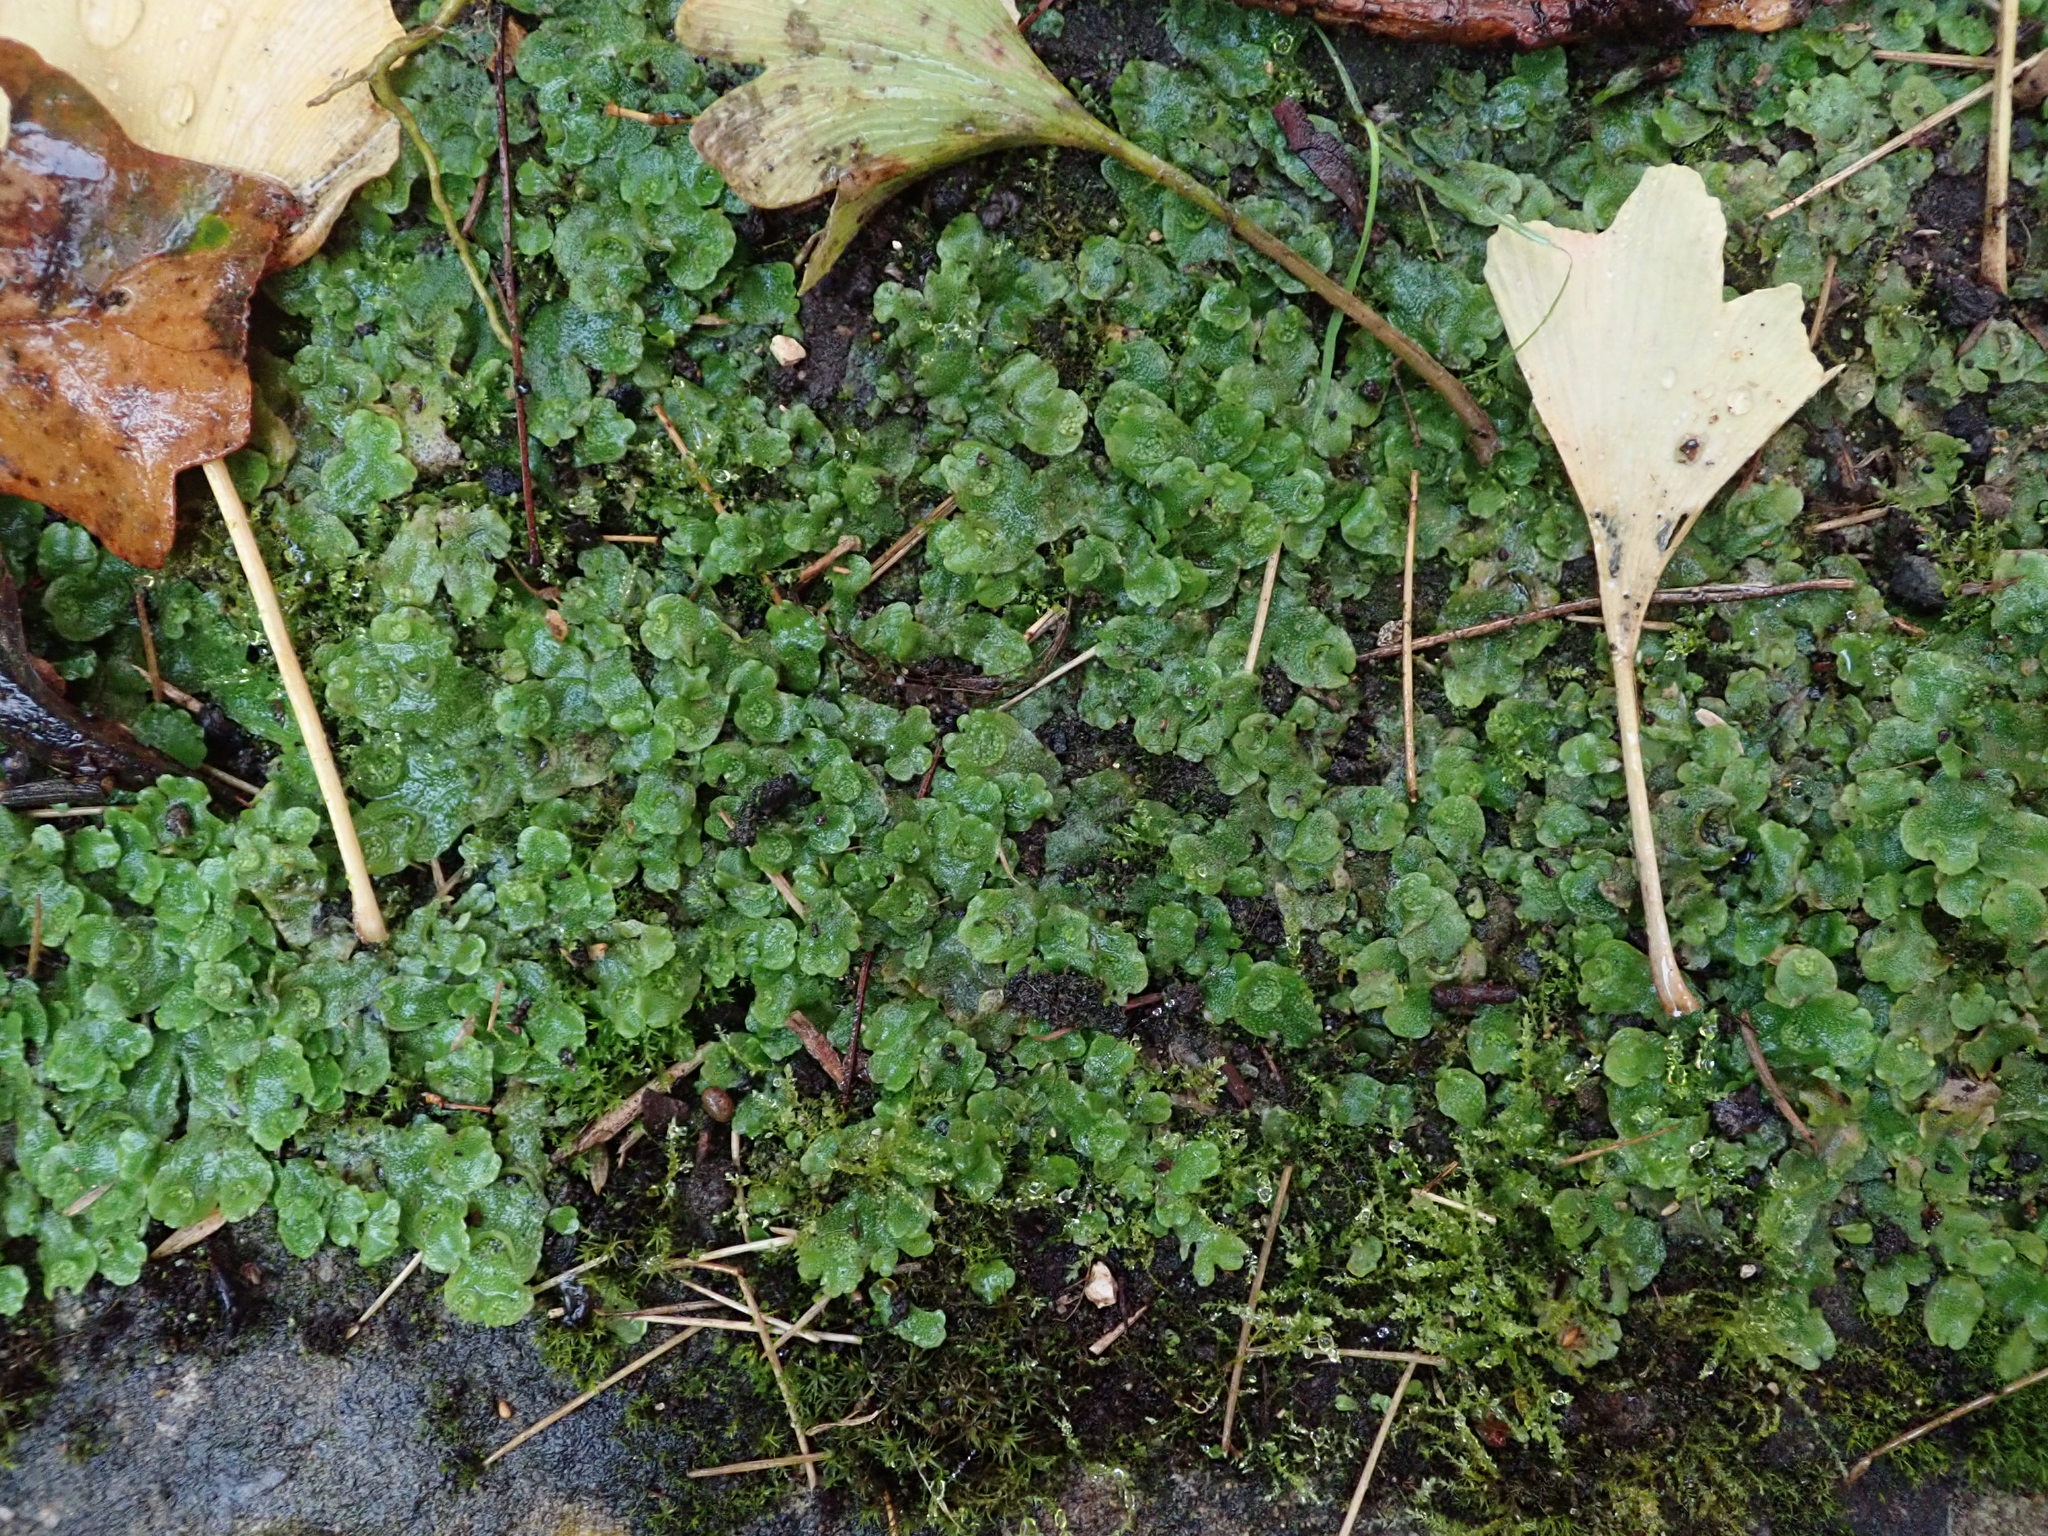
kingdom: Plantae
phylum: Marchantiophyta
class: Marchantiopsida
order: Lunulariales
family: Lunulariaceae
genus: Lunularia
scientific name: Lunularia cruciata
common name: Crescent-cup liverwort
